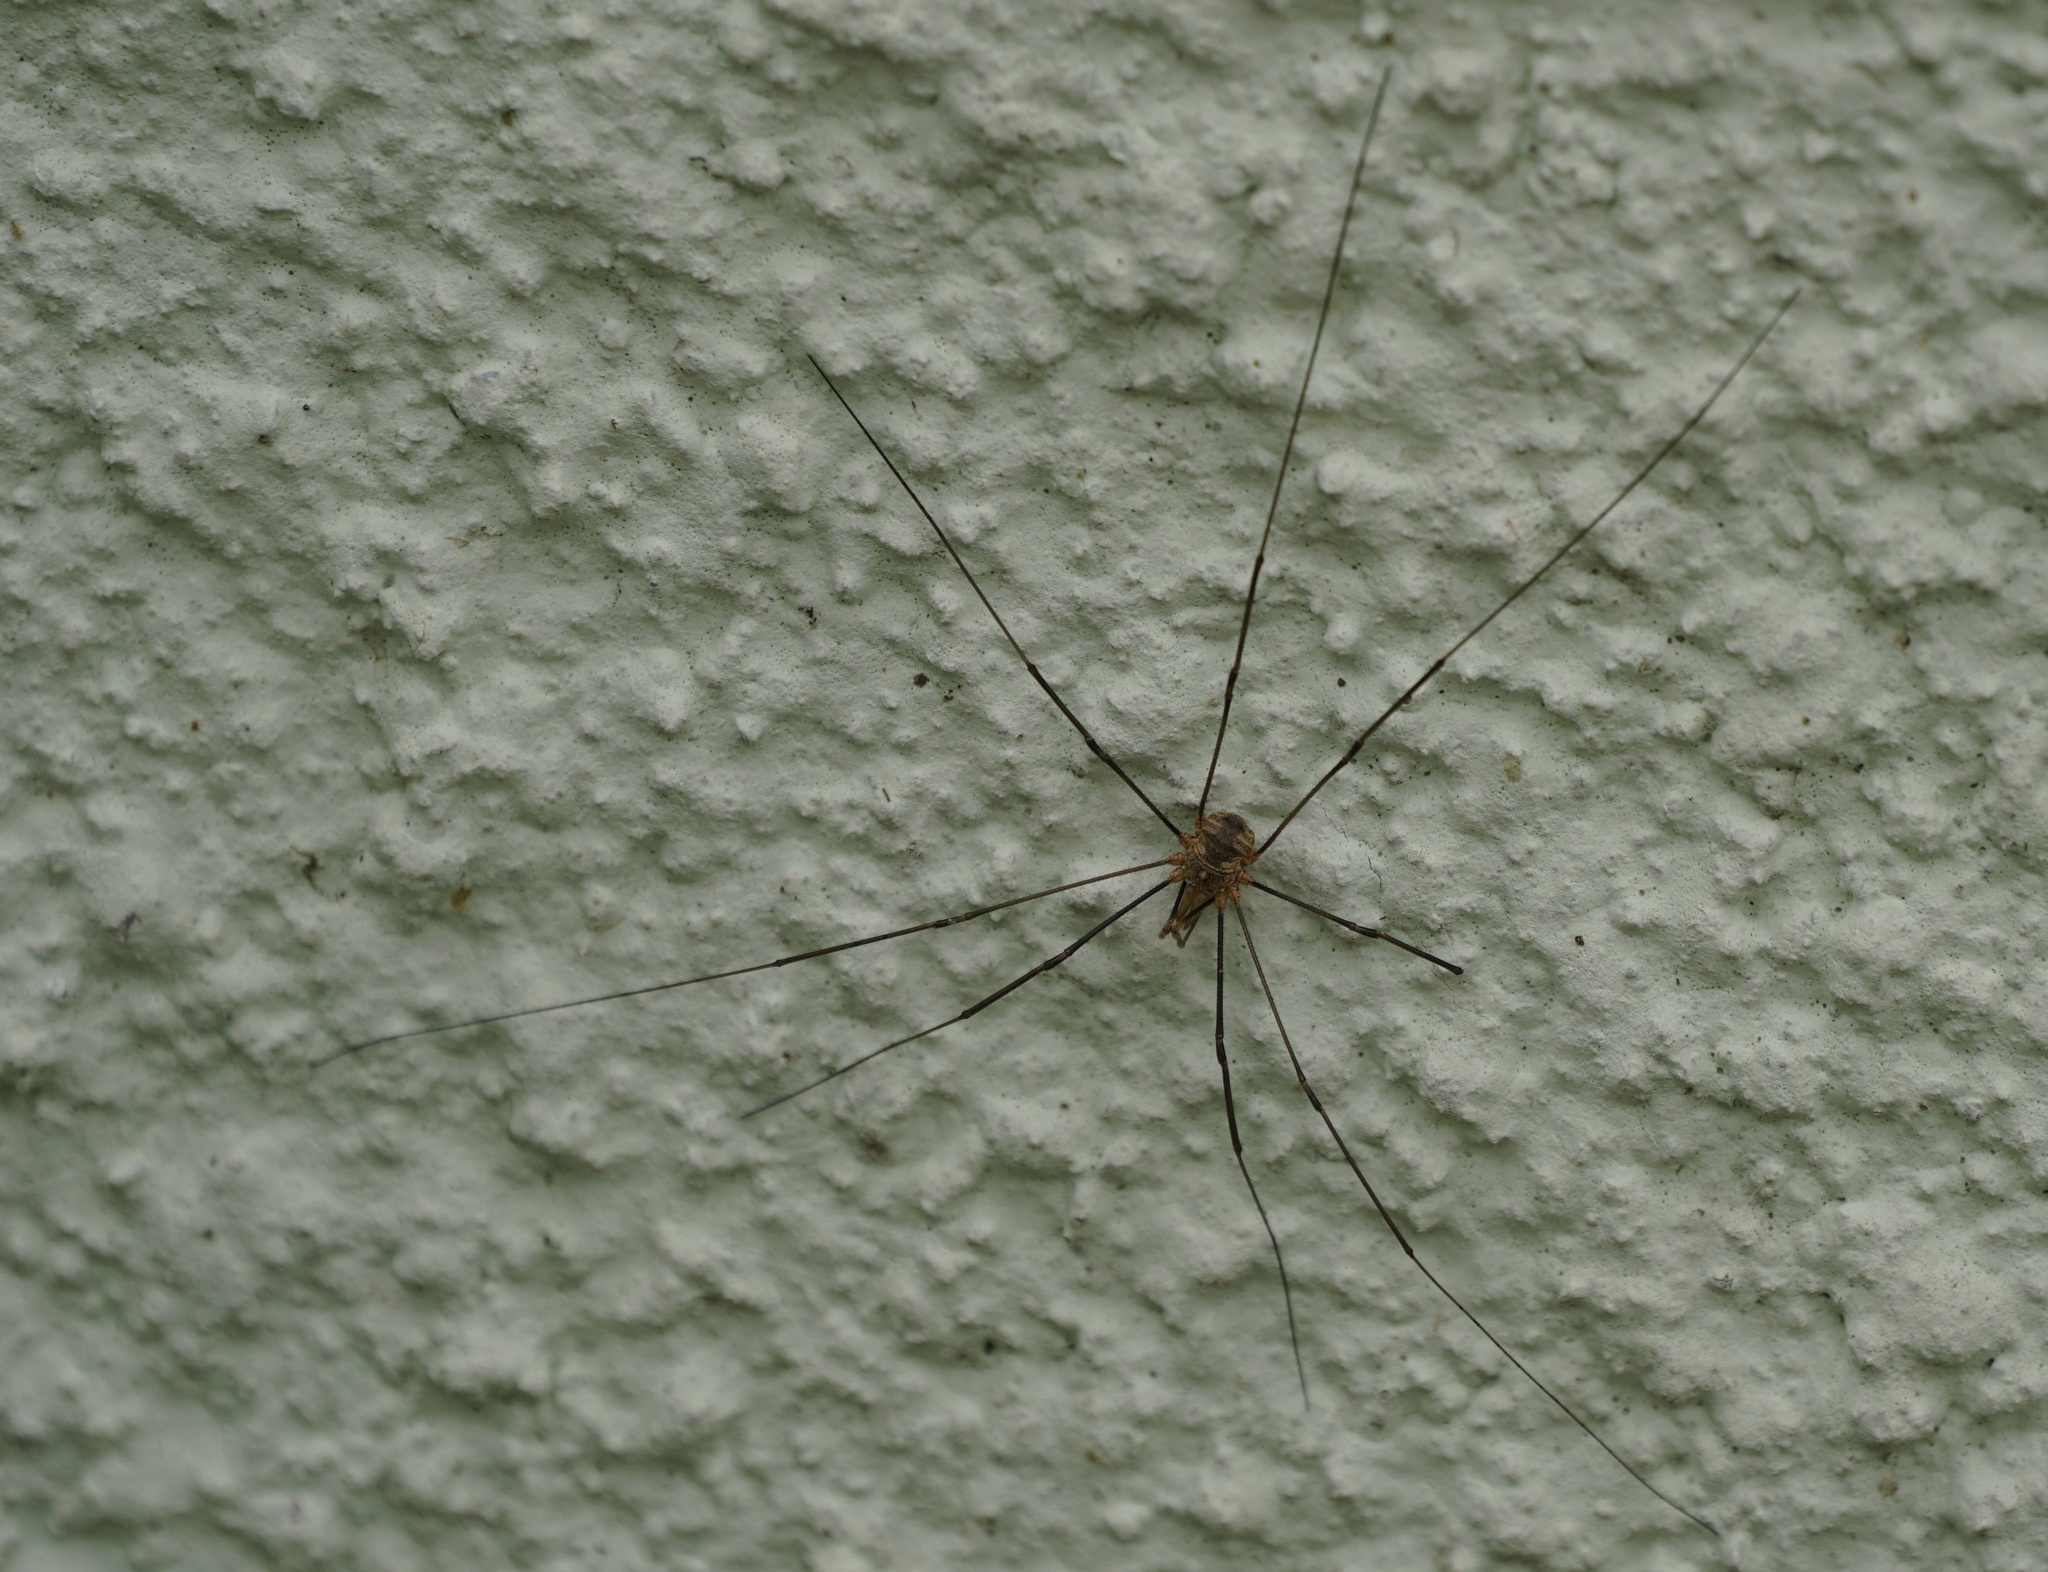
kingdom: Animalia
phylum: Arthropoda
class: Arachnida
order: Opiliones
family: Phalangiidae
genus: Phalangium
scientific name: Phalangium opilio
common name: Daddy longleg
